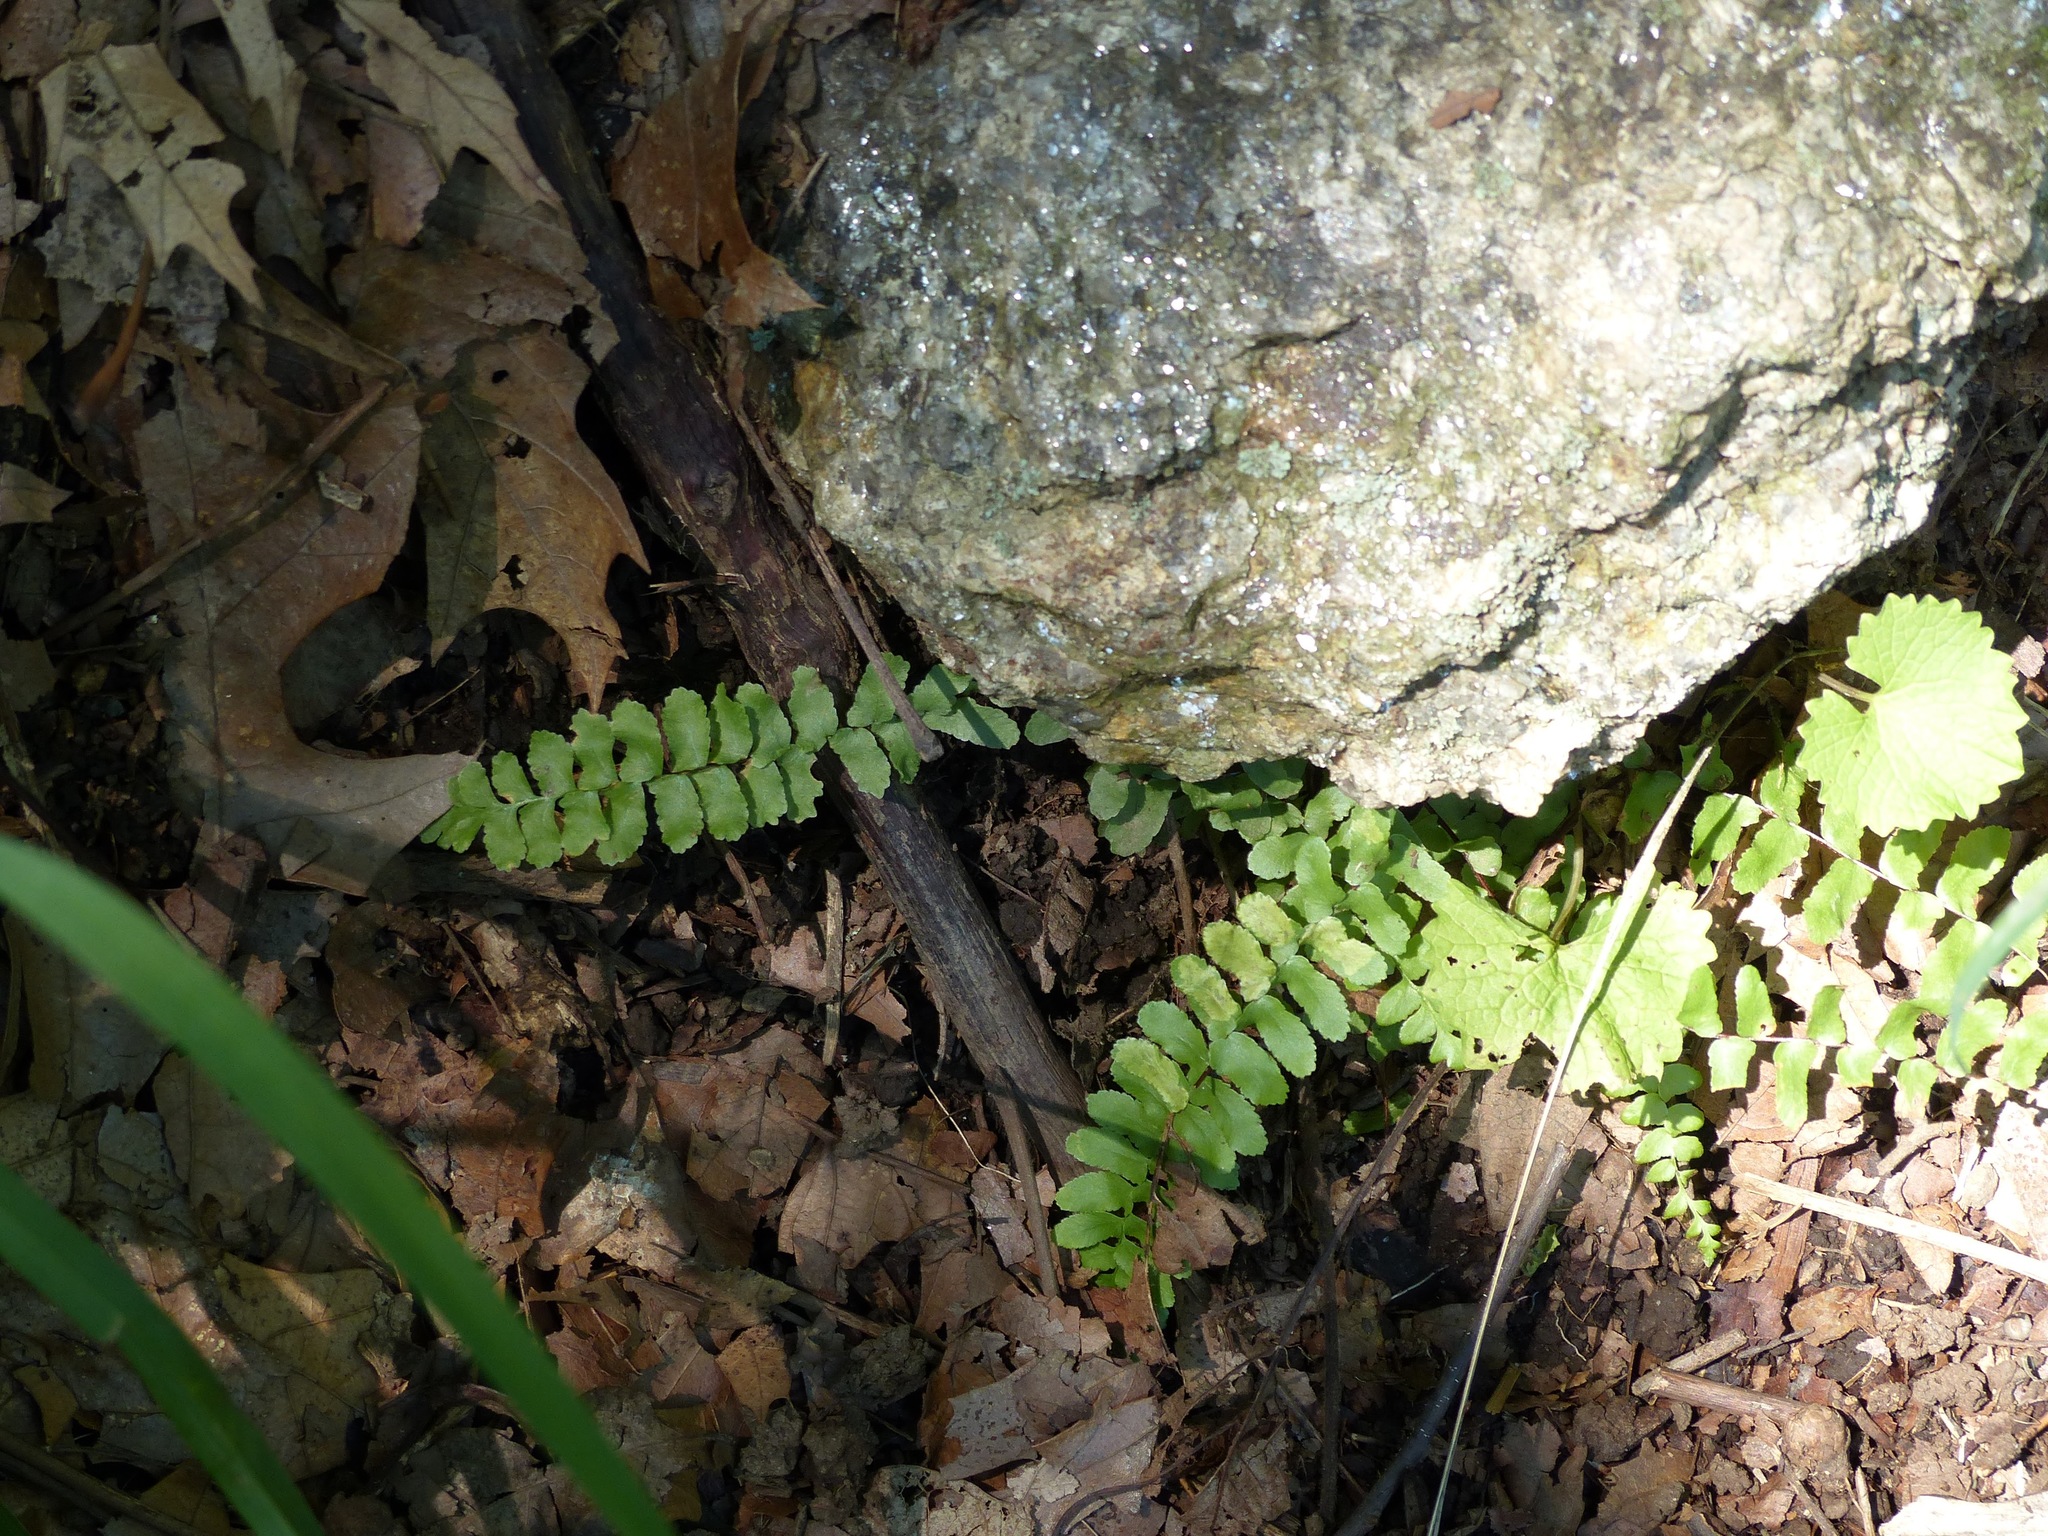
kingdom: Plantae
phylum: Tracheophyta
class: Polypodiopsida
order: Polypodiales
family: Aspleniaceae
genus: Asplenium
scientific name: Asplenium platyneuron
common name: Ebony spleenwort
